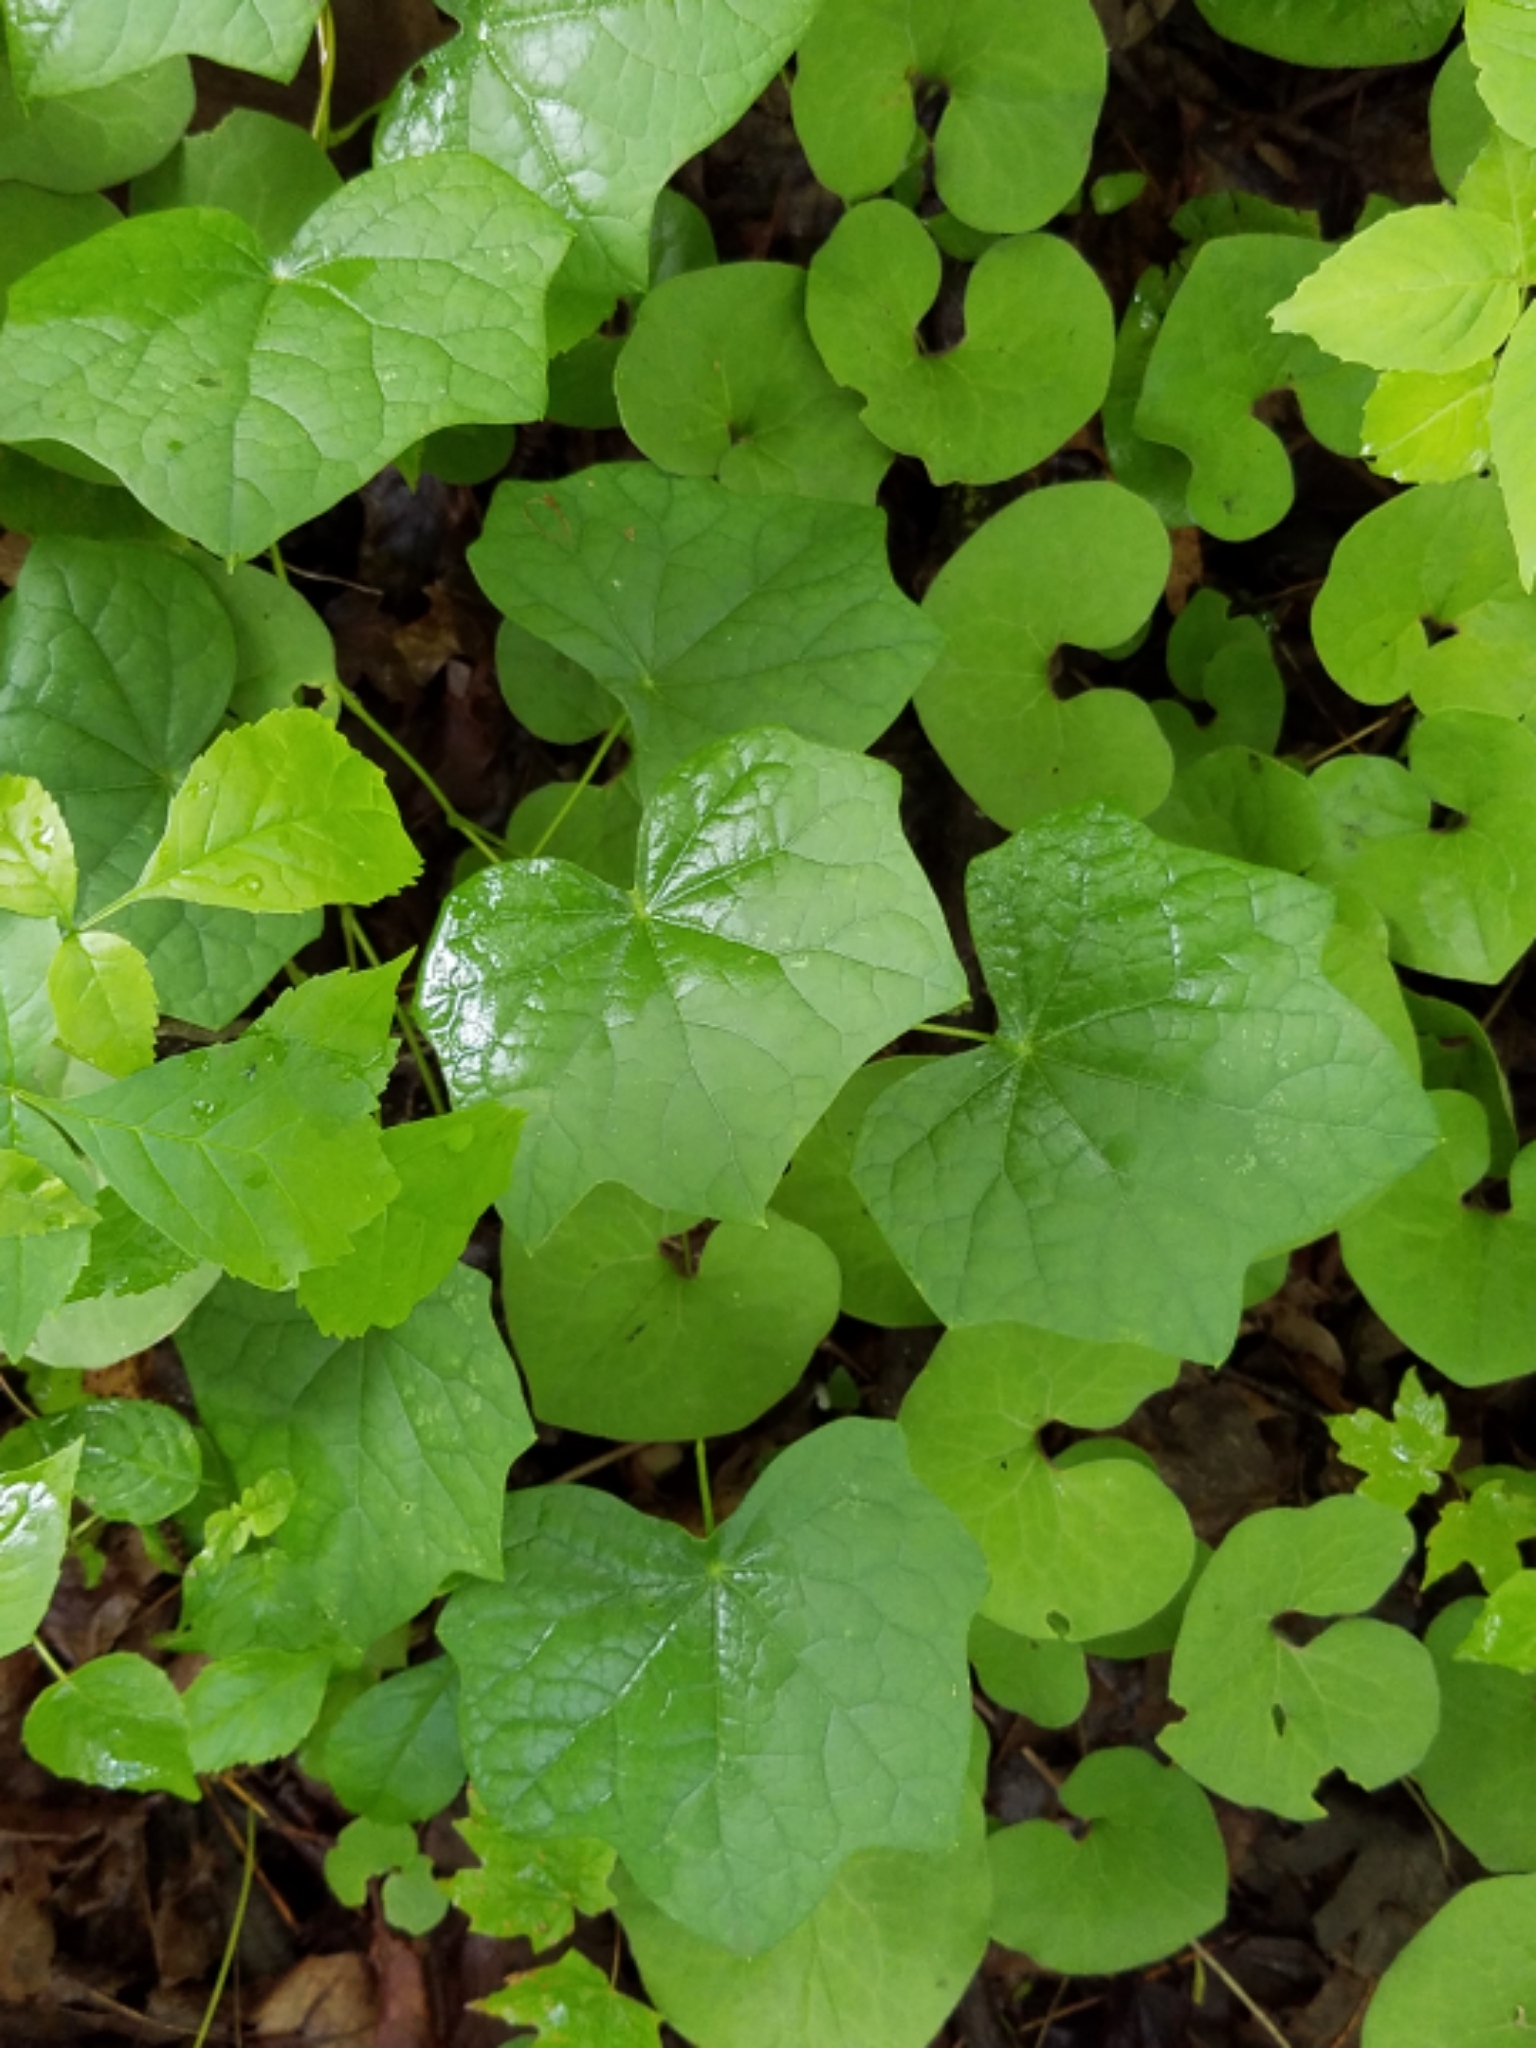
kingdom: Plantae
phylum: Tracheophyta
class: Magnoliopsida
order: Ranunculales
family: Menispermaceae
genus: Menispermum
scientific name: Menispermum canadense
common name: Moonseed
